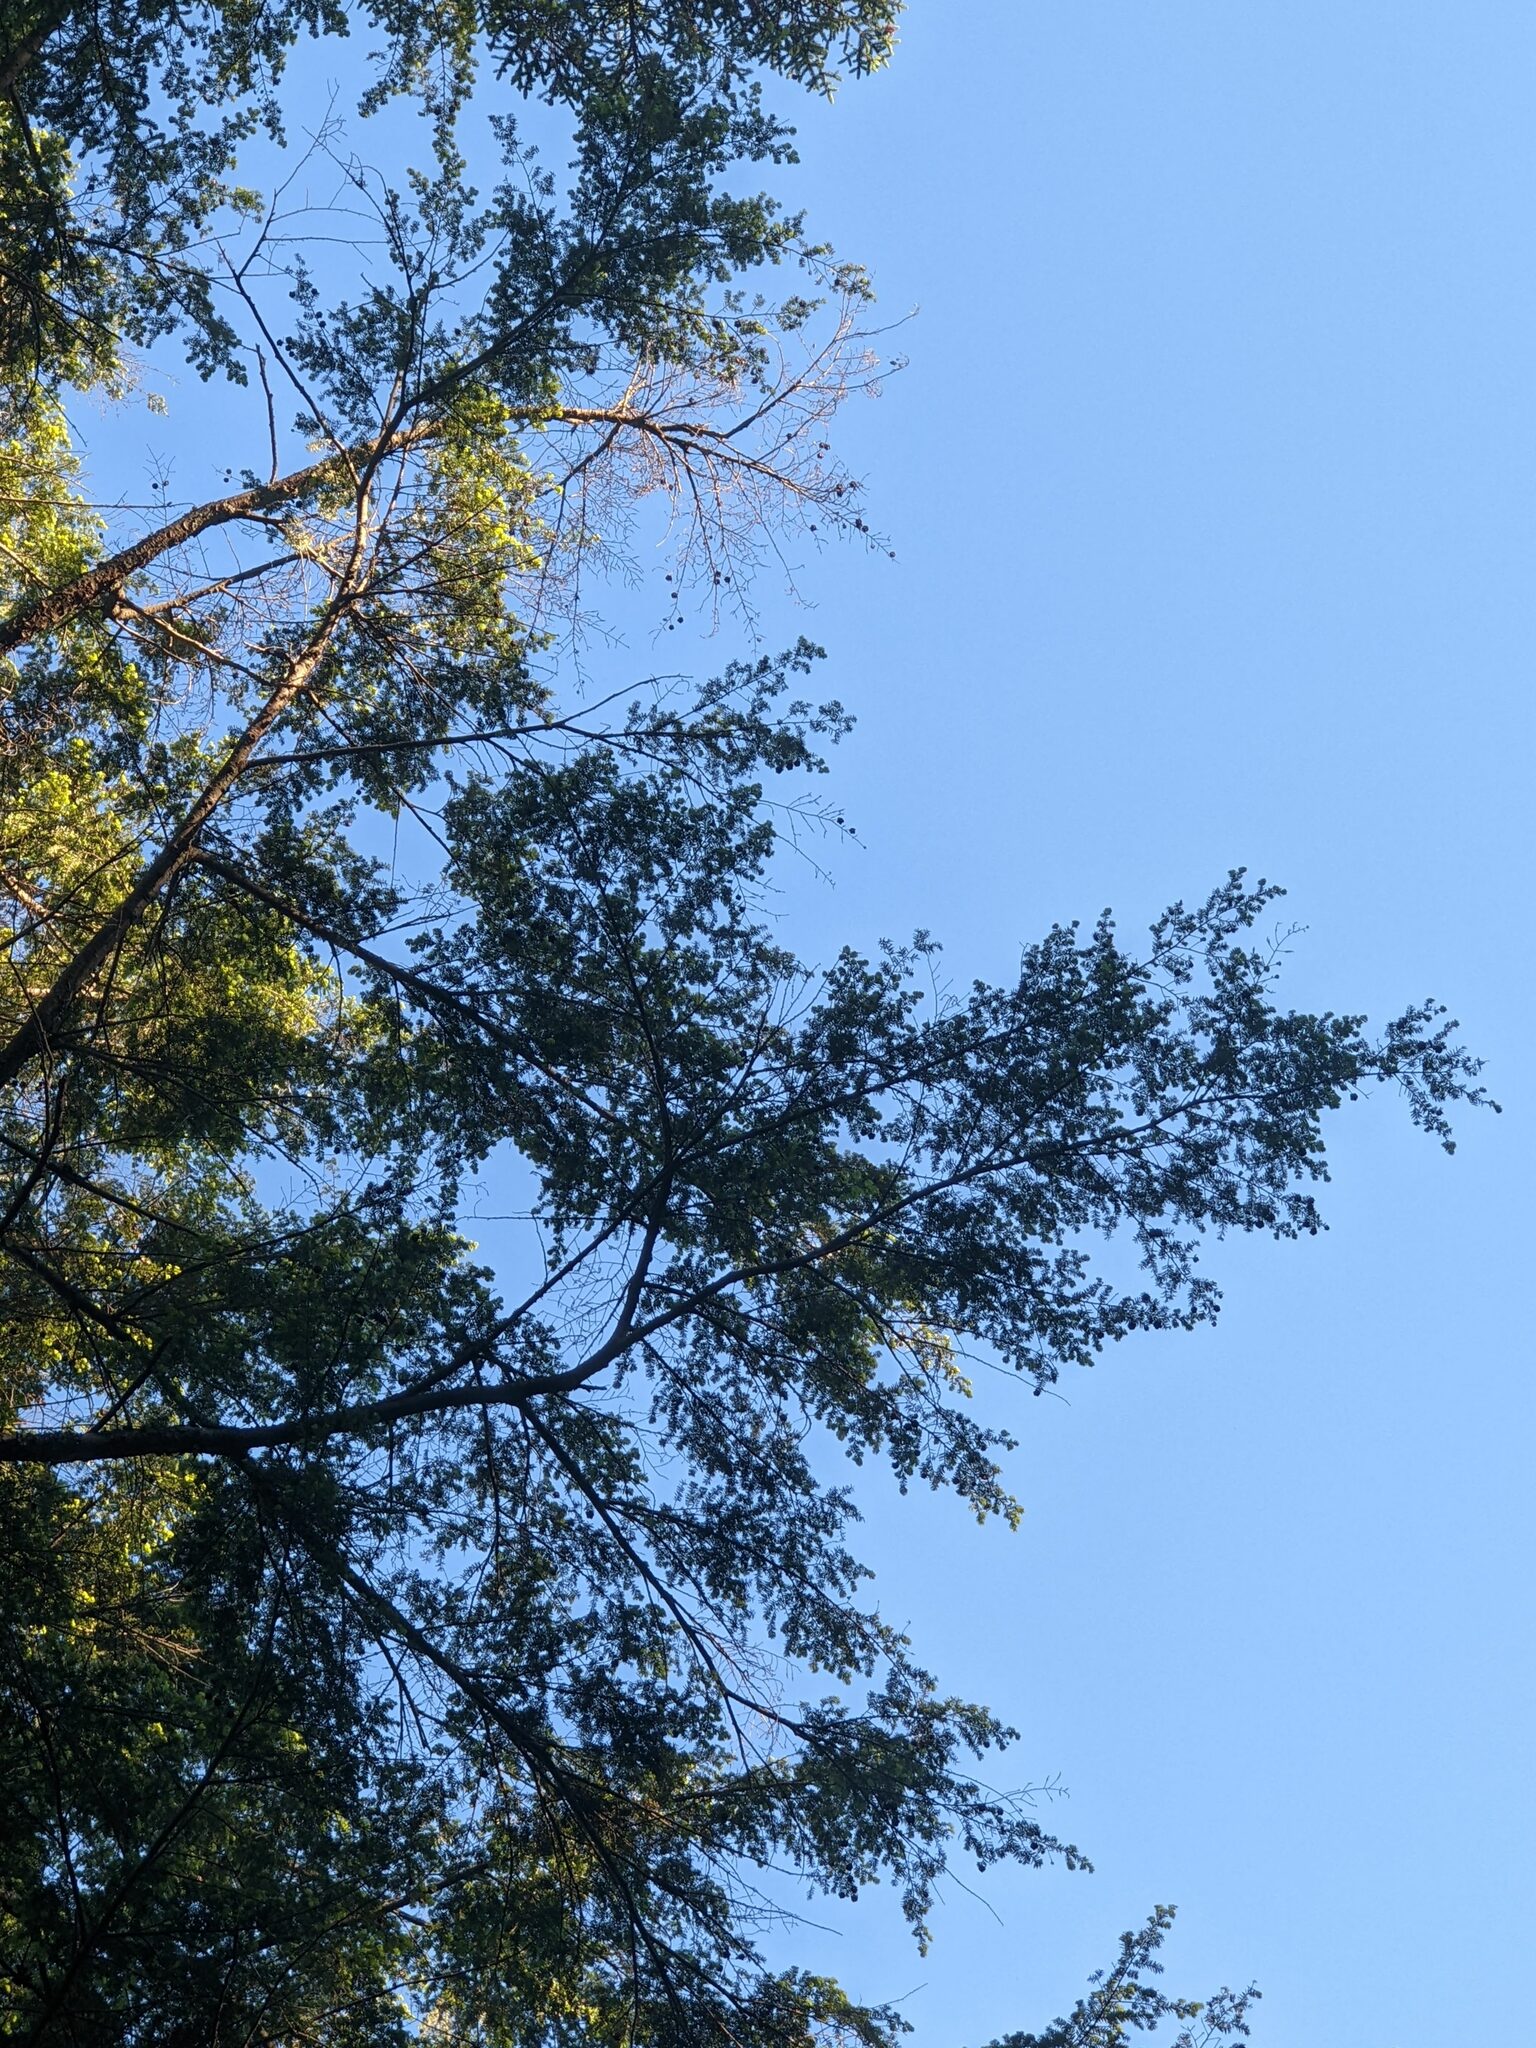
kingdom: Plantae
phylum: Tracheophyta
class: Pinopsida
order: Pinales
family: Pinaceae
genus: Tsuga
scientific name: Tsuga canadensis
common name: Eastern hemlock
